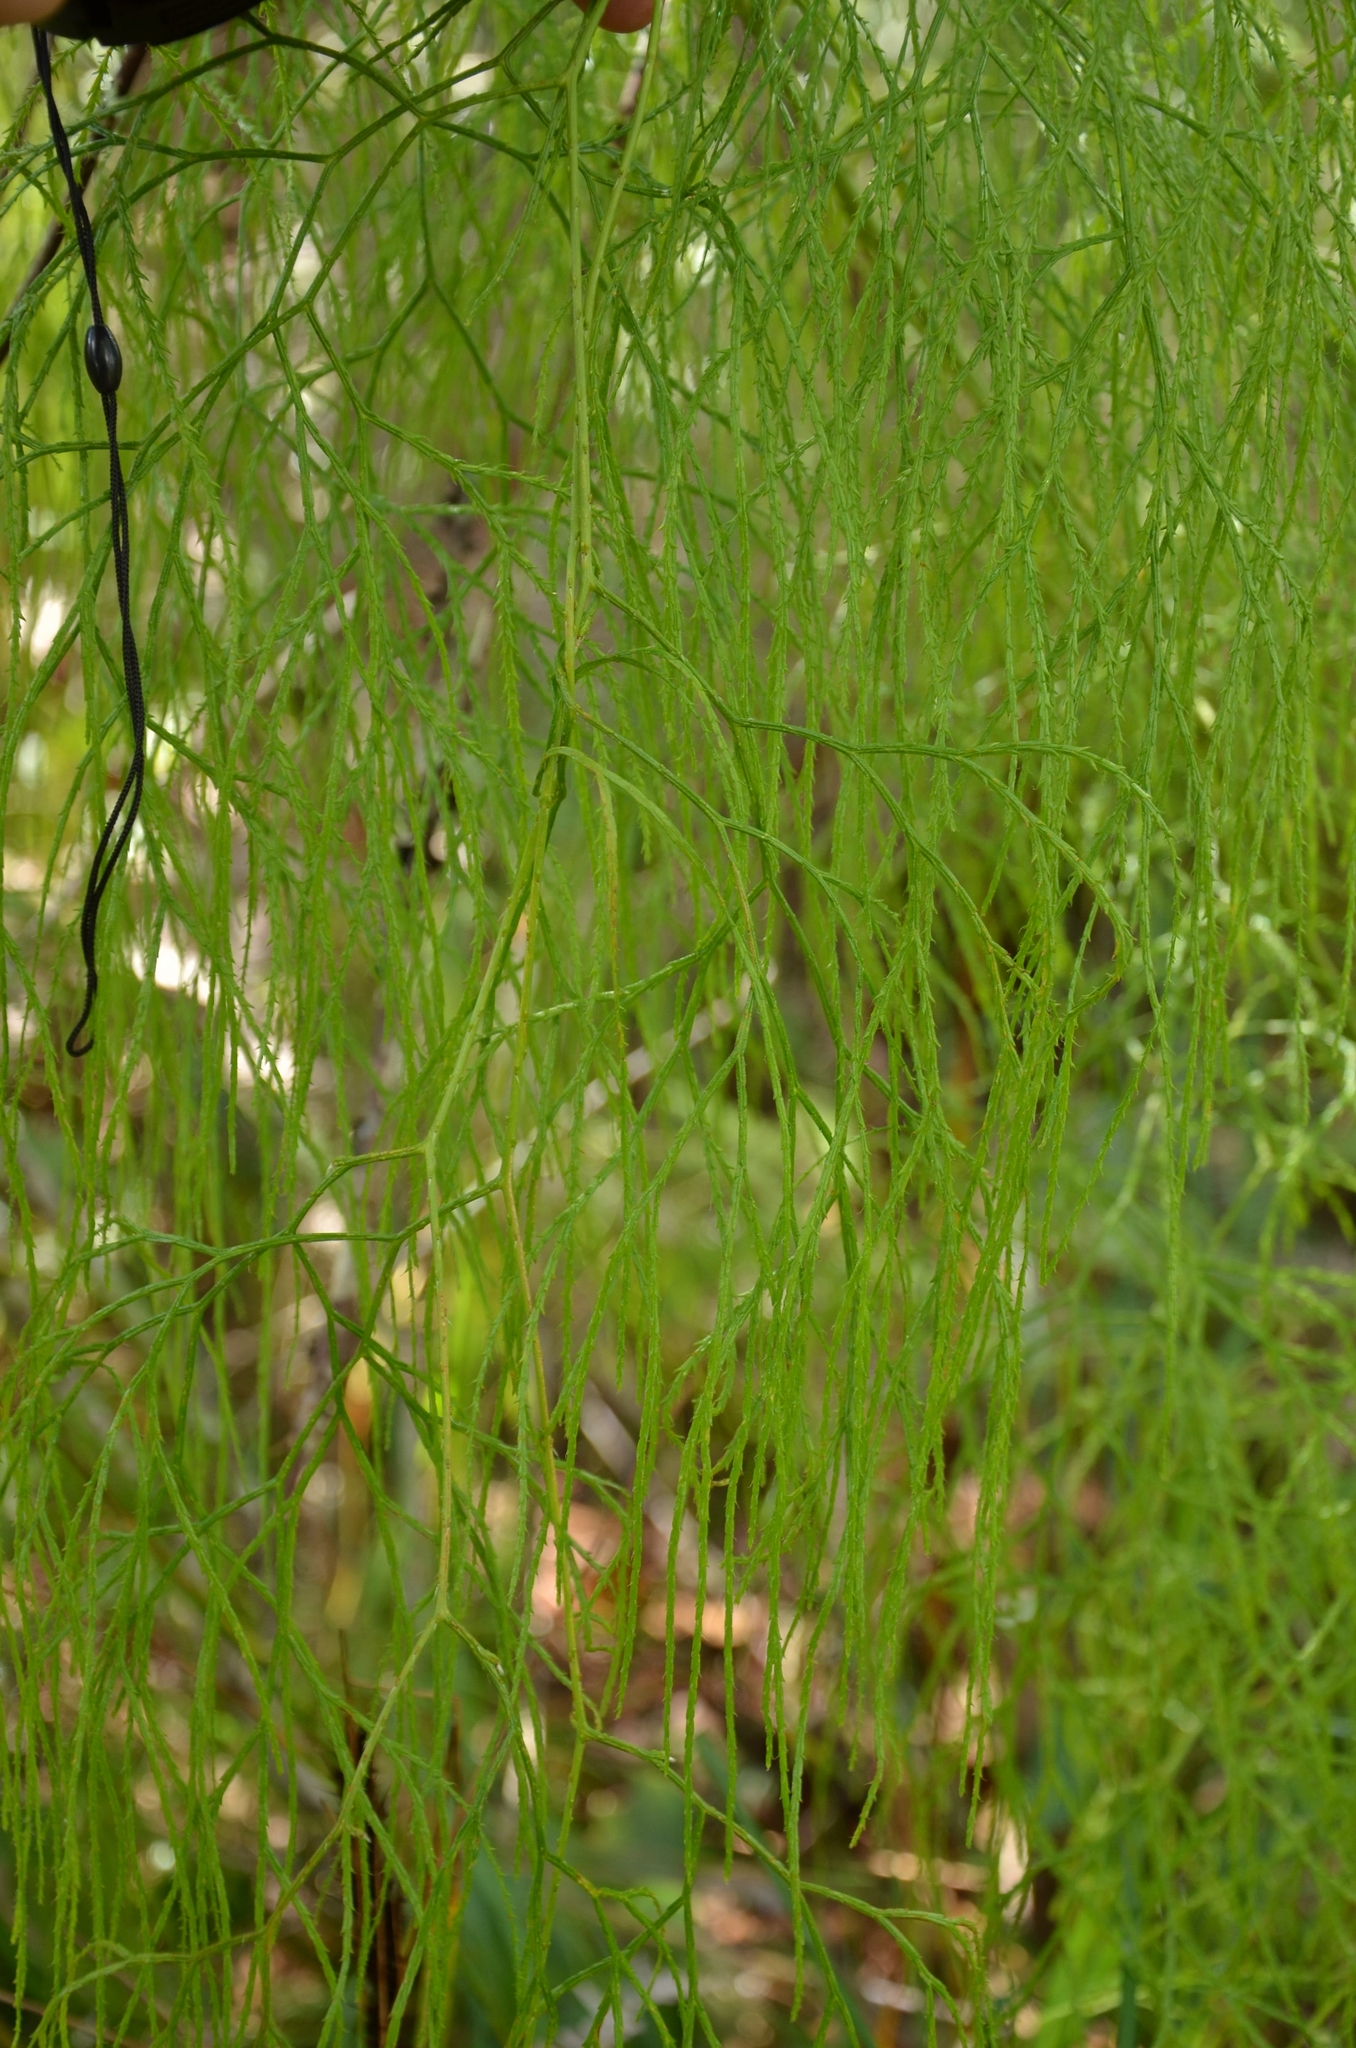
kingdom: Plantae
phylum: Tracheophyta
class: Lycopodiopsida
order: Lycopodiales
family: Lycopodiaceae
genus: Lycopodiastrum
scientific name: Lycopodiastrum casuarinoides
